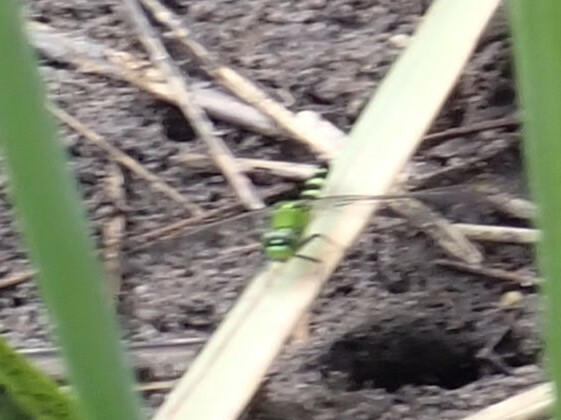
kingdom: Animalia
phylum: Arthropoda
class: Insecta
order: Odonata
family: Libellulidae
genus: Erythemis
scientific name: Erythemis simplicicollis
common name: Eastern pondhawk
